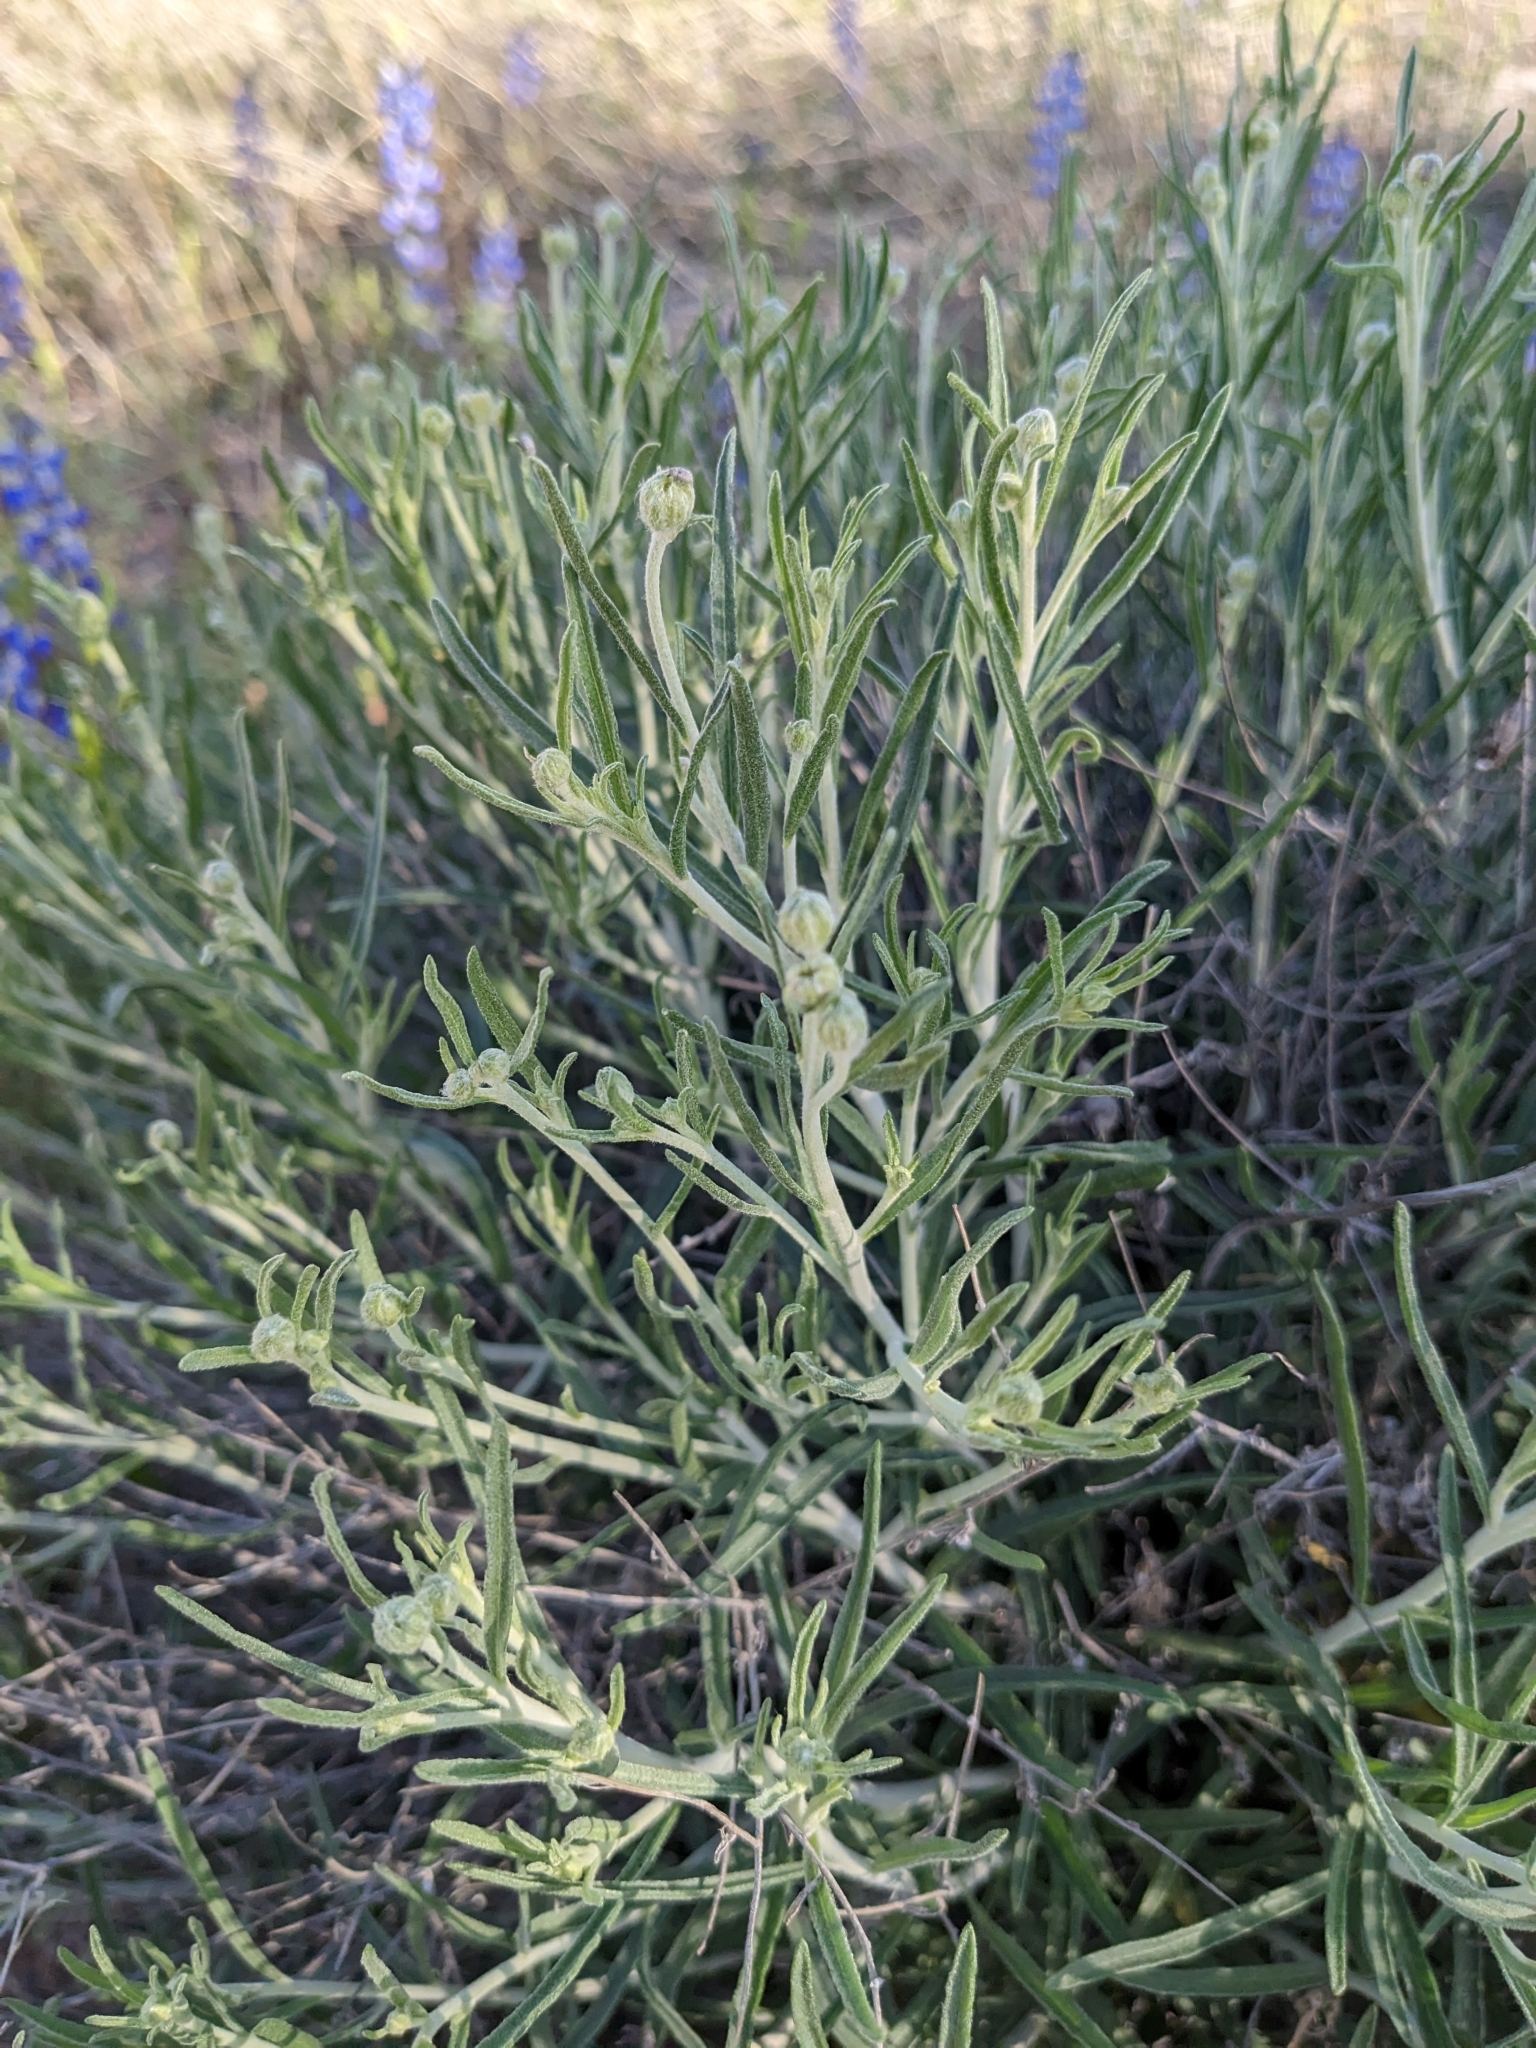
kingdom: Plantae
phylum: Tracheophyta
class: Magnoliopsida
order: Asterales
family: Asteraceae
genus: Psilostrophe
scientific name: Psilostrophe cooperi
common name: White-stem paper-flower
